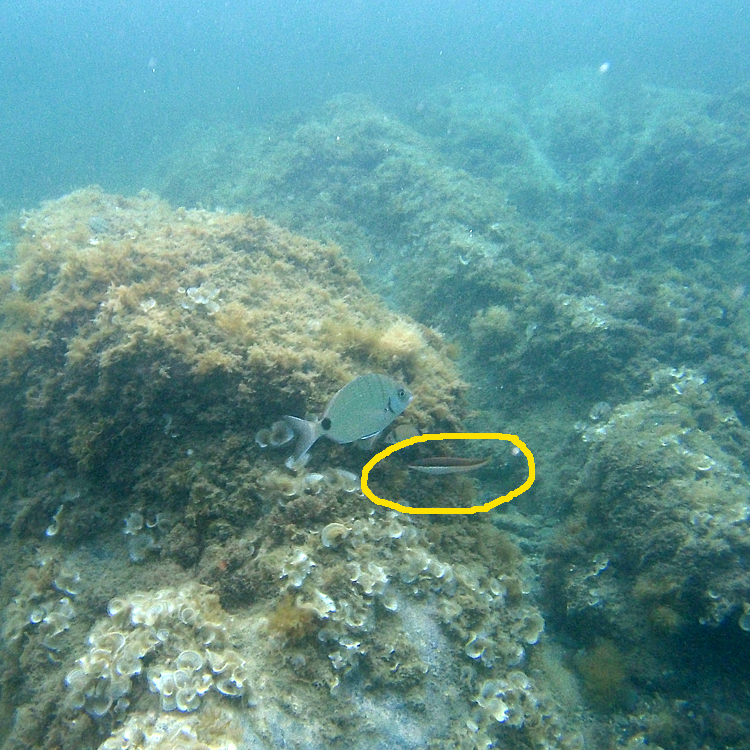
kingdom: Animalia
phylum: Chordata
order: Perciformes
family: Labridae
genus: Coris
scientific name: Coris julis
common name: Rainbow wrasse
